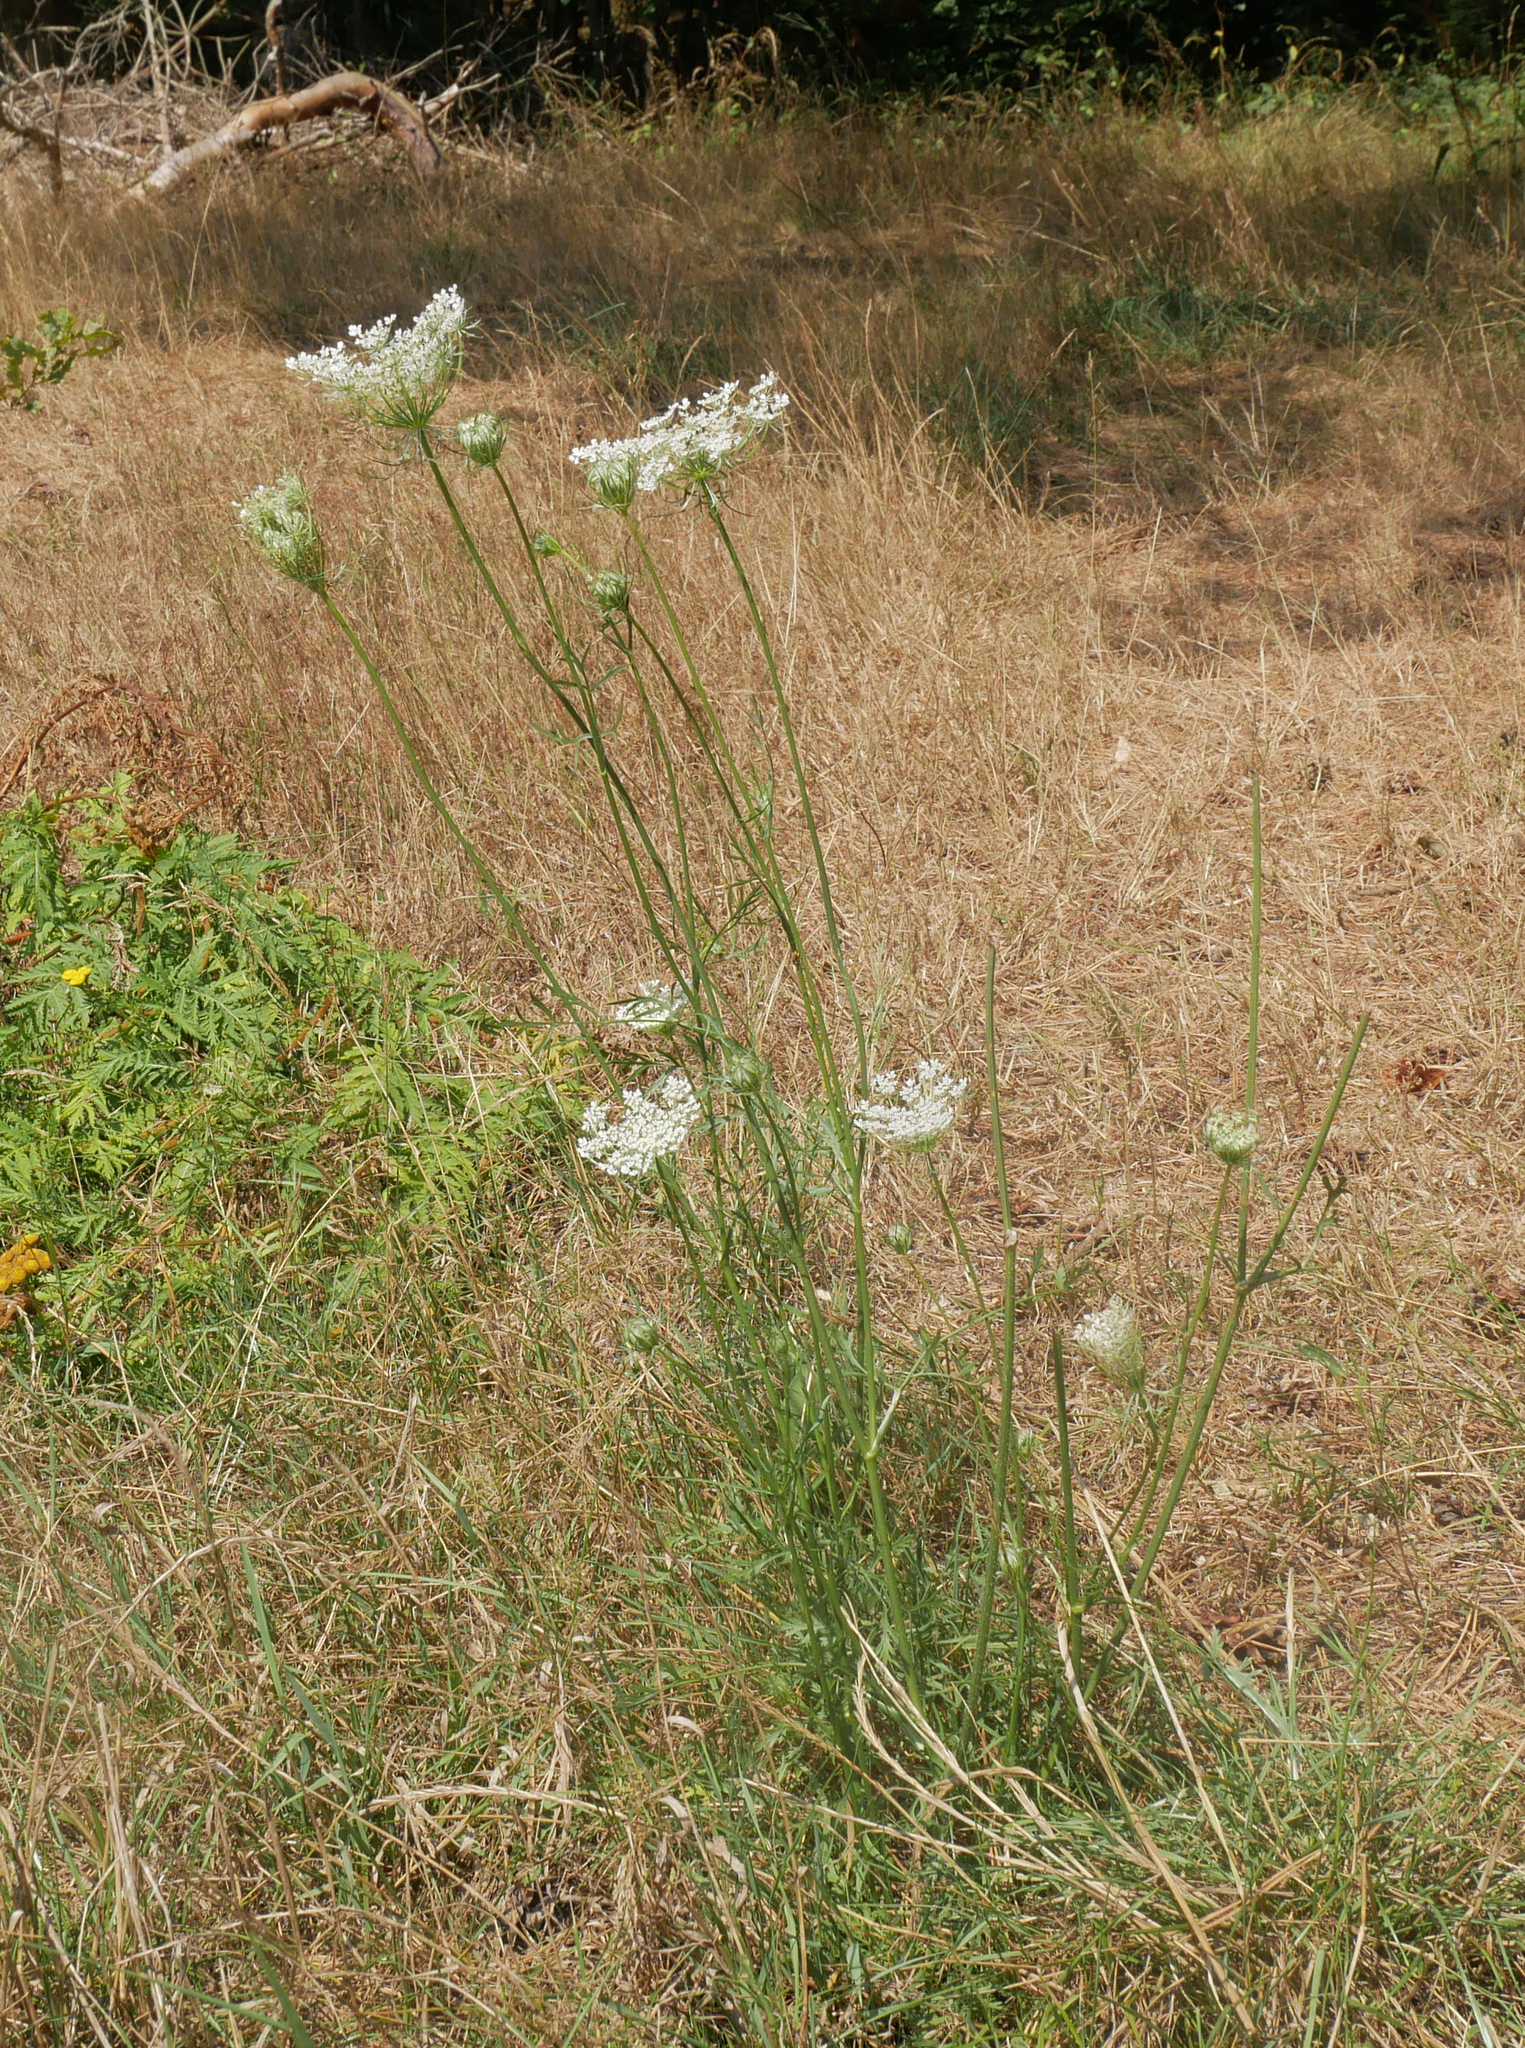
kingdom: Plantae
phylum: Tracheophyta
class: Magnoliopsida
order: Apiales
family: Apiaceae
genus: Daucus
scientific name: Daucus carota
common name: Wild carrot
